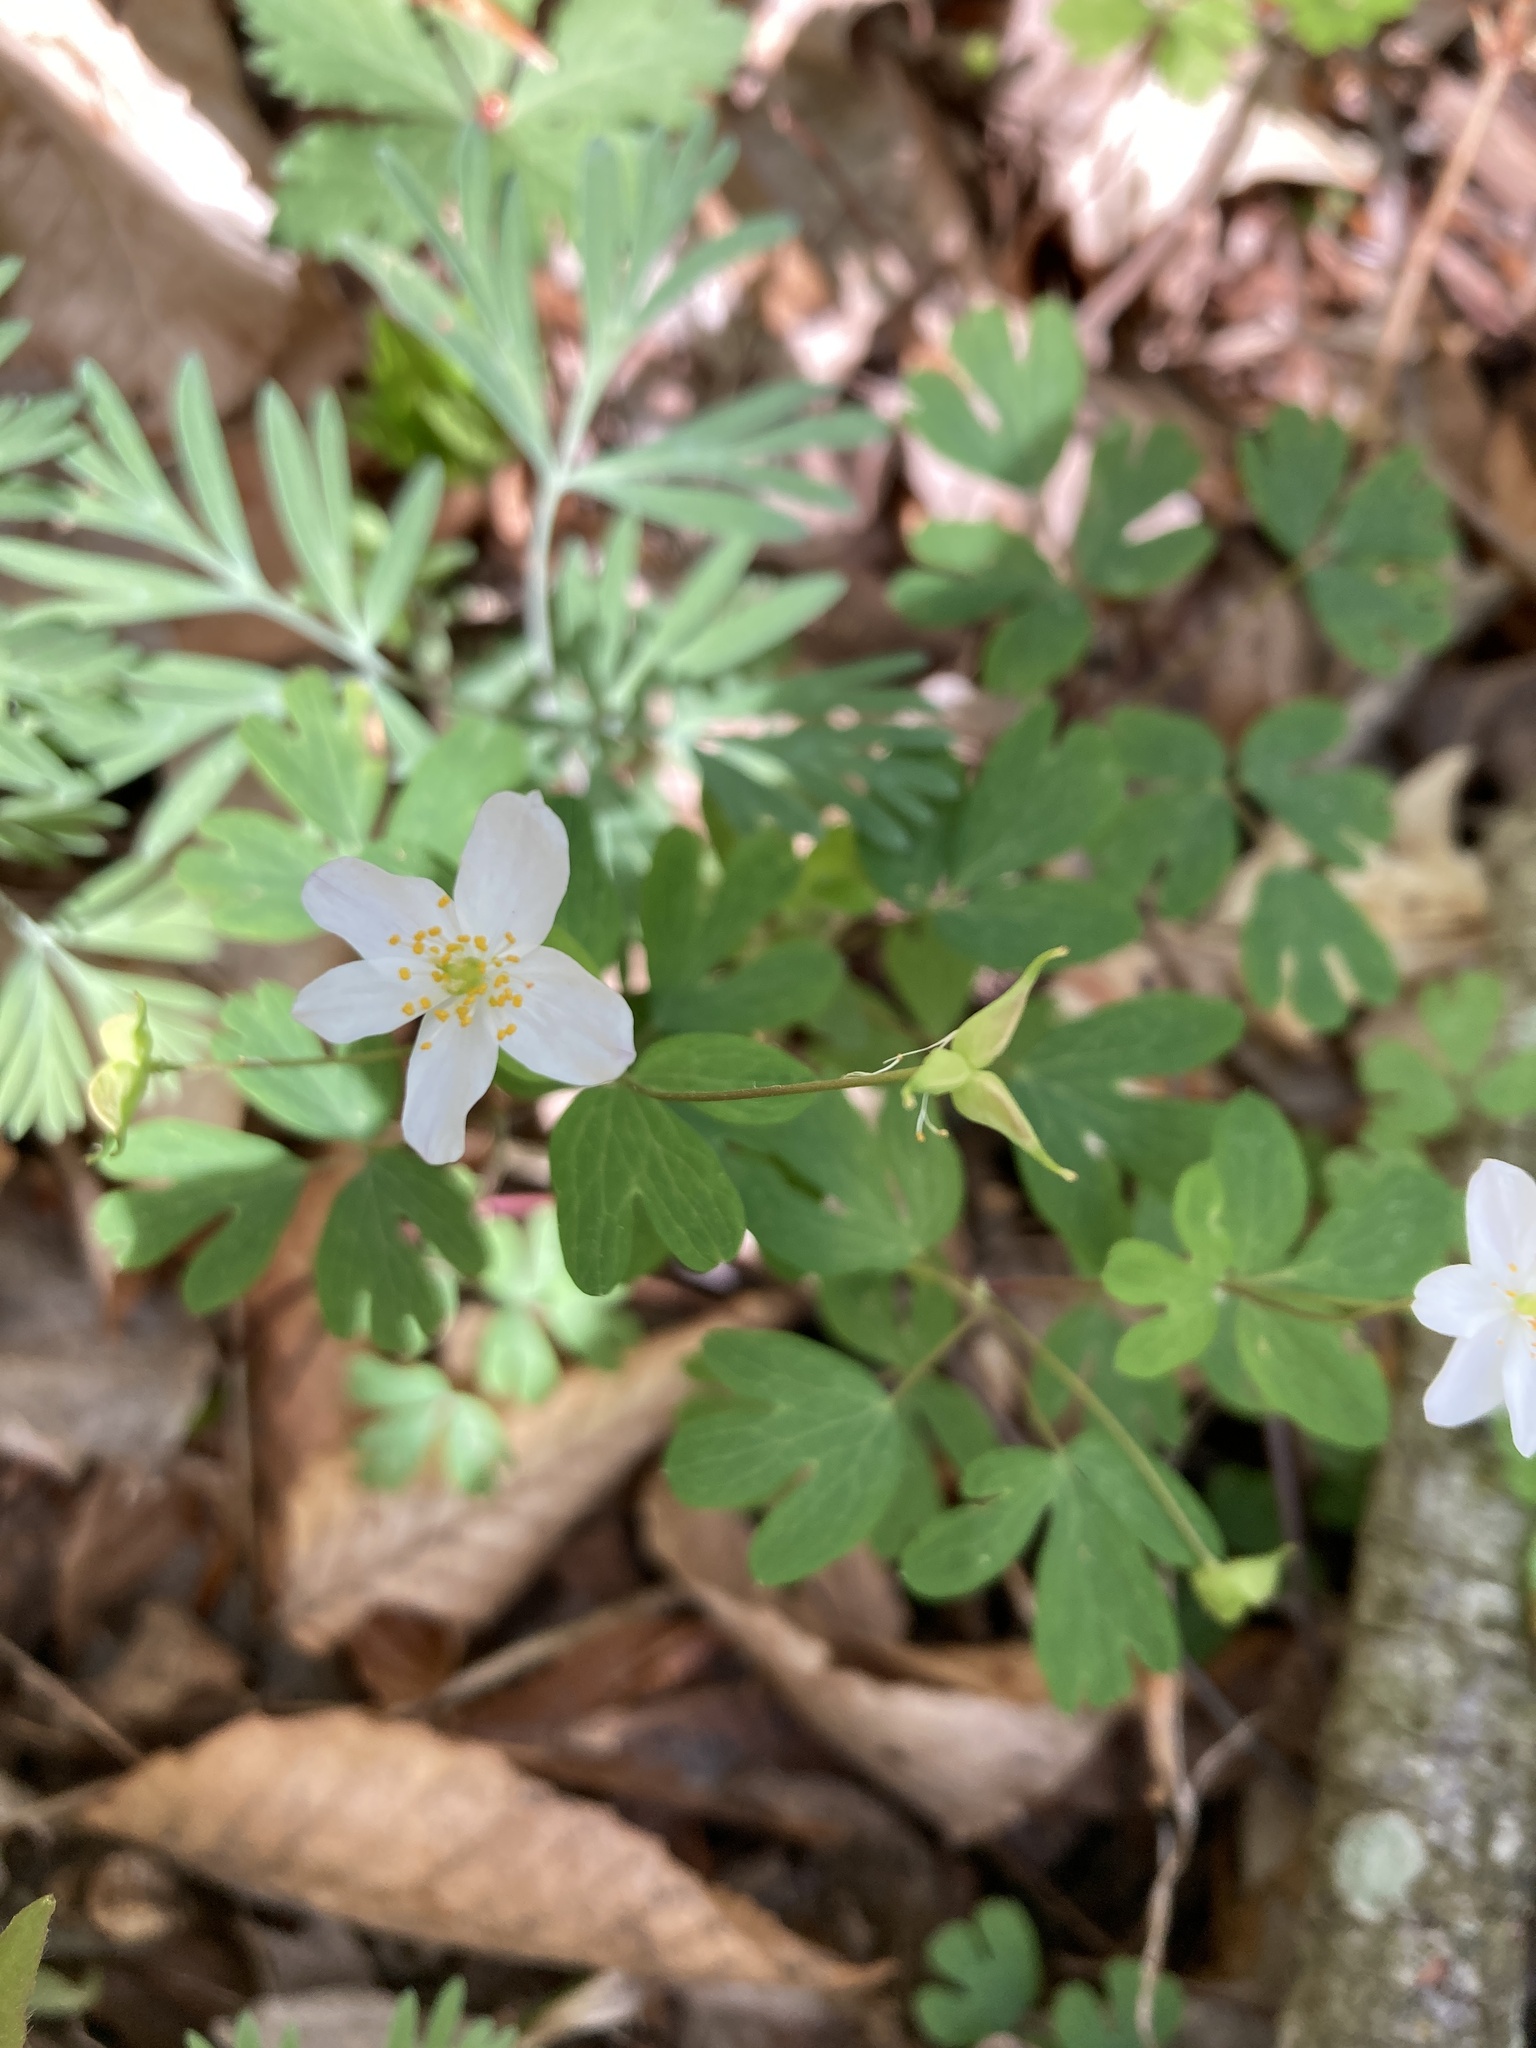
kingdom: Plantae
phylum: Tracheophyta
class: Magnoliopsida
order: Ranunculales
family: Ranunculaceae
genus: Enemion
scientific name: Enemion biternatum
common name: Eastern false rue-anemone
